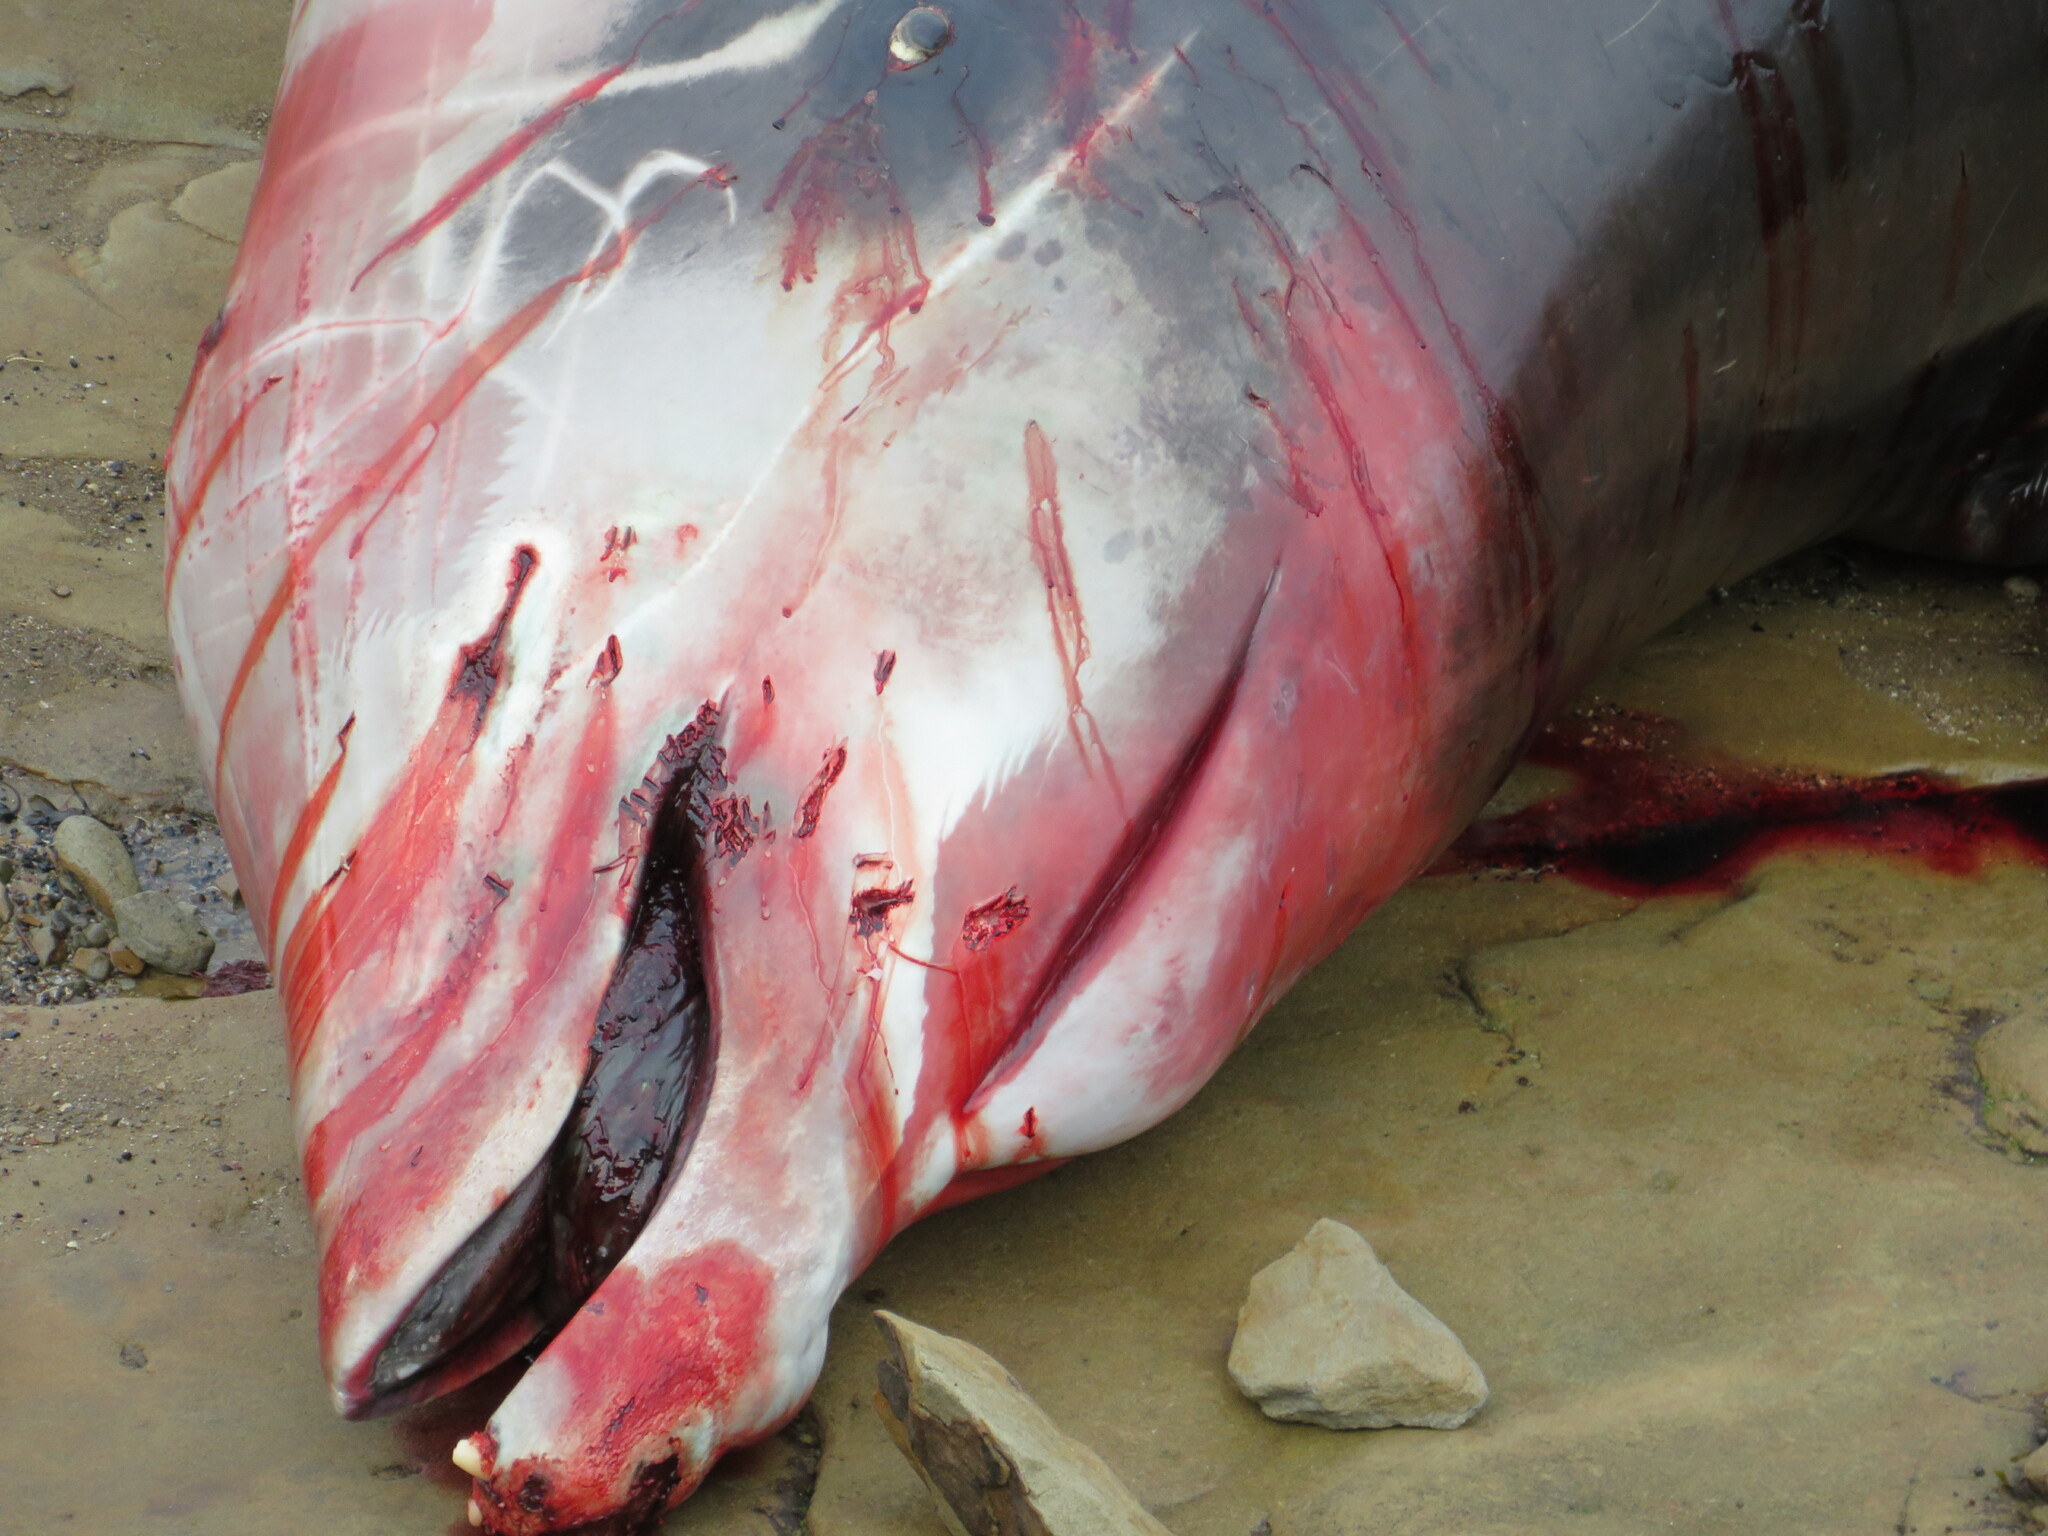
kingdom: Animalia
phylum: Chordata
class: Mammalia
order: Cetacea
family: Hyperoodontidae
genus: Ziphius
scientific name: Ziphius cavirostris
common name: Cuvier's beaked whale
